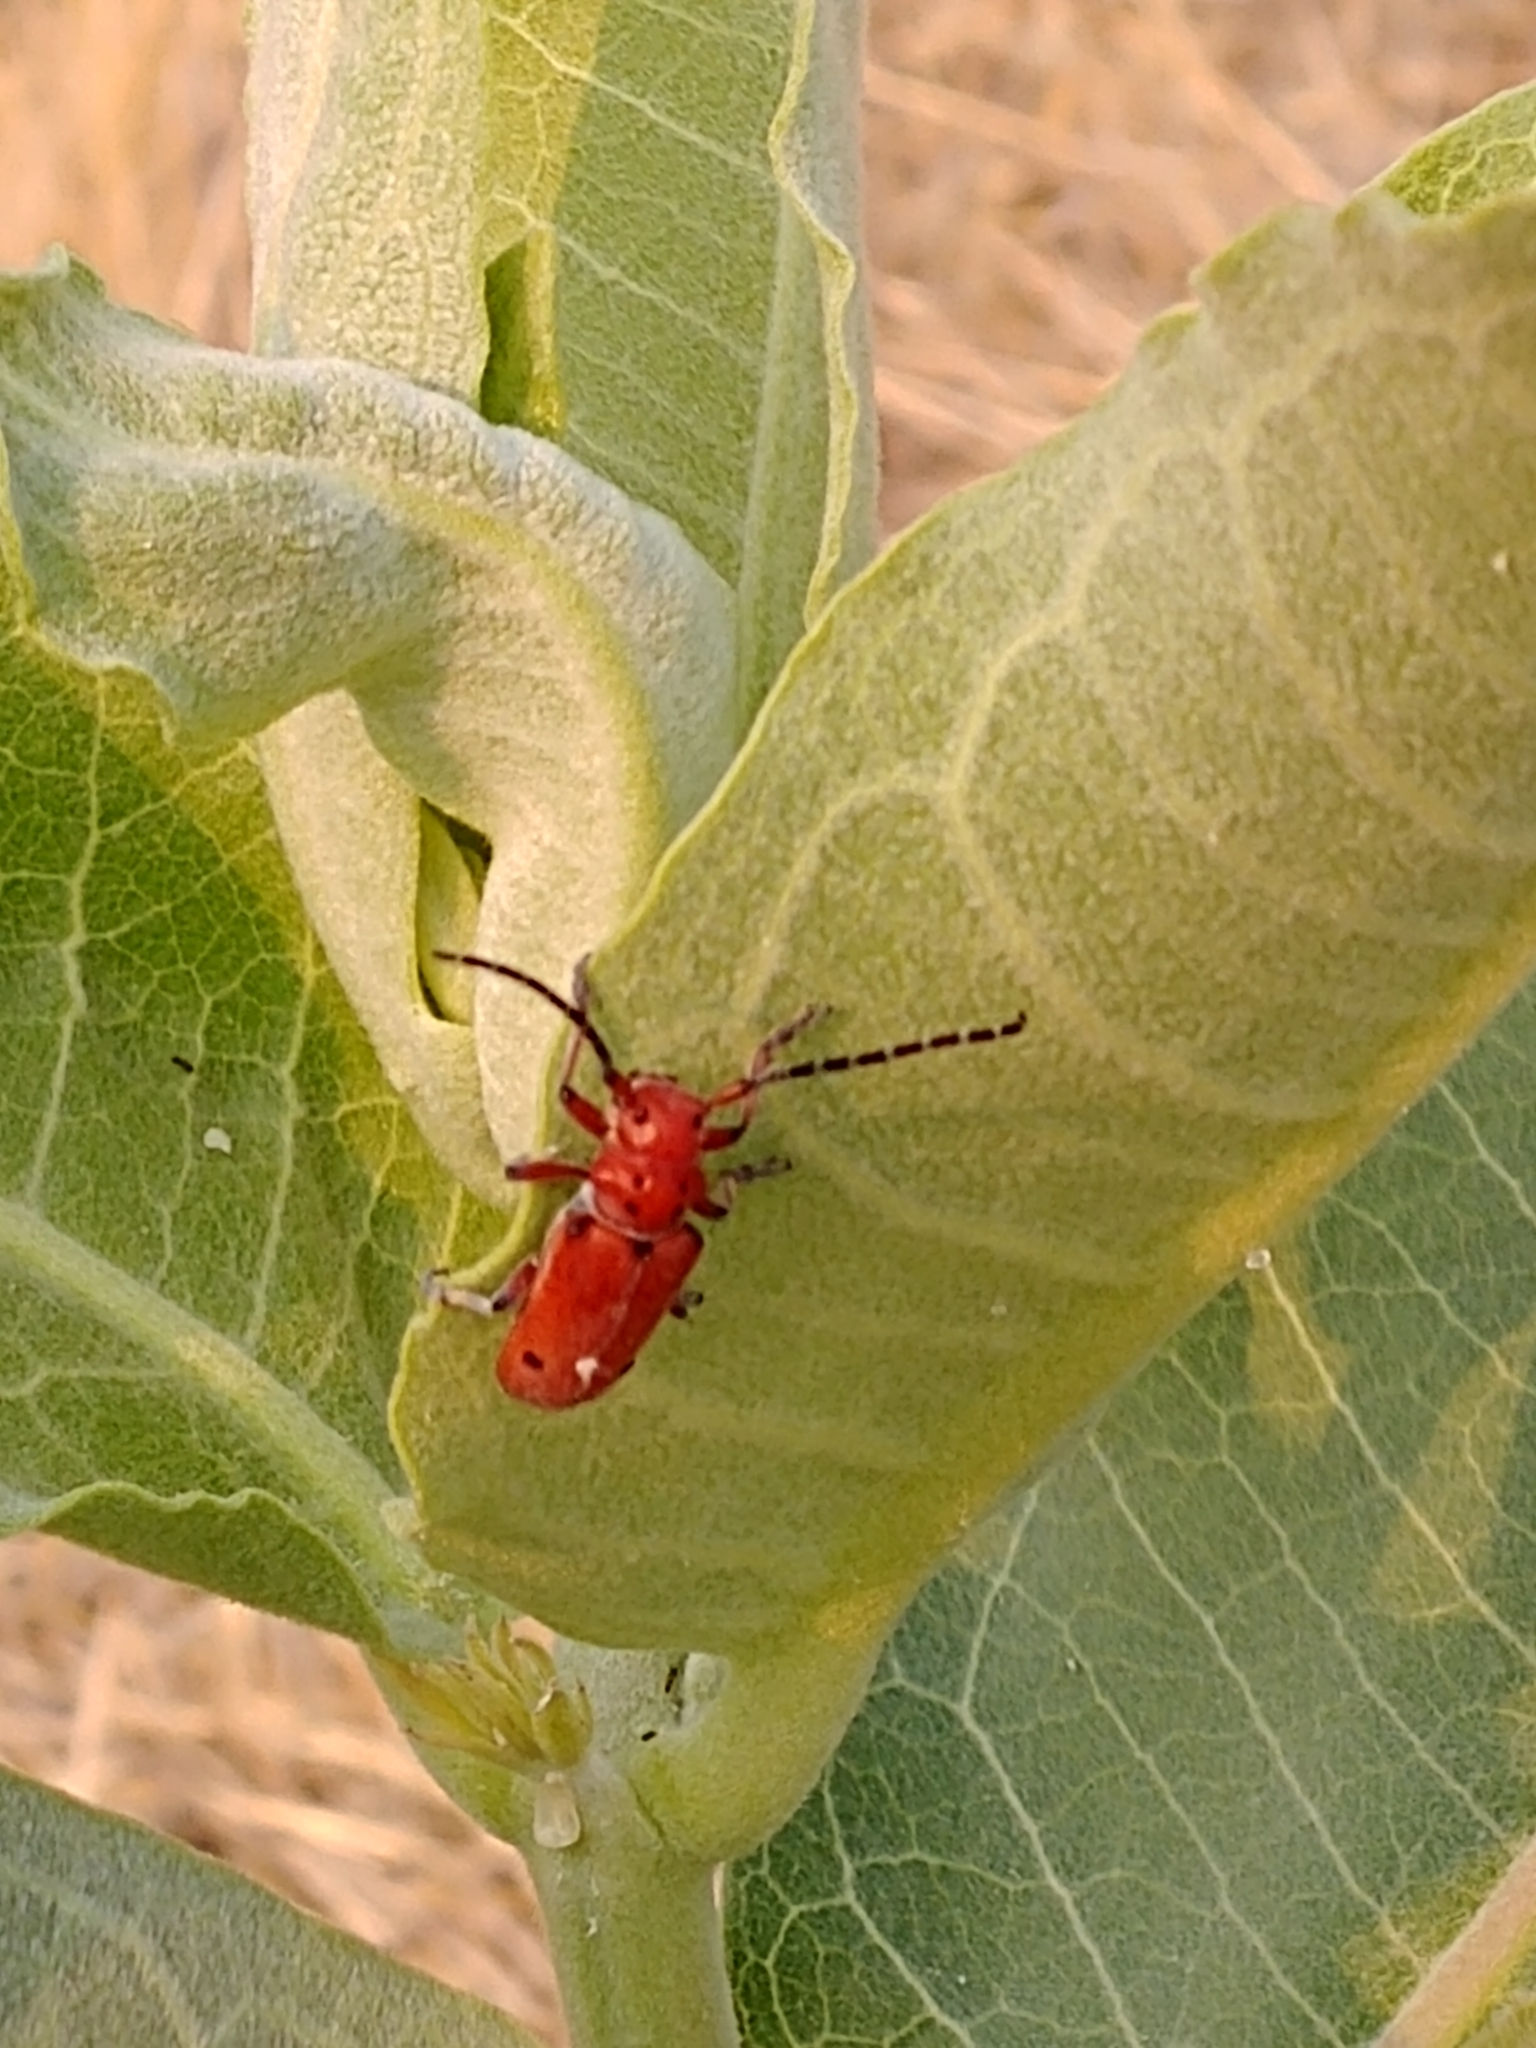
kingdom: Animalia
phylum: Arthropoda
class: Insecta
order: Coleoptera
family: Cerambycidae
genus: Tetraopes
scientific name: Tetraopes femoratus
